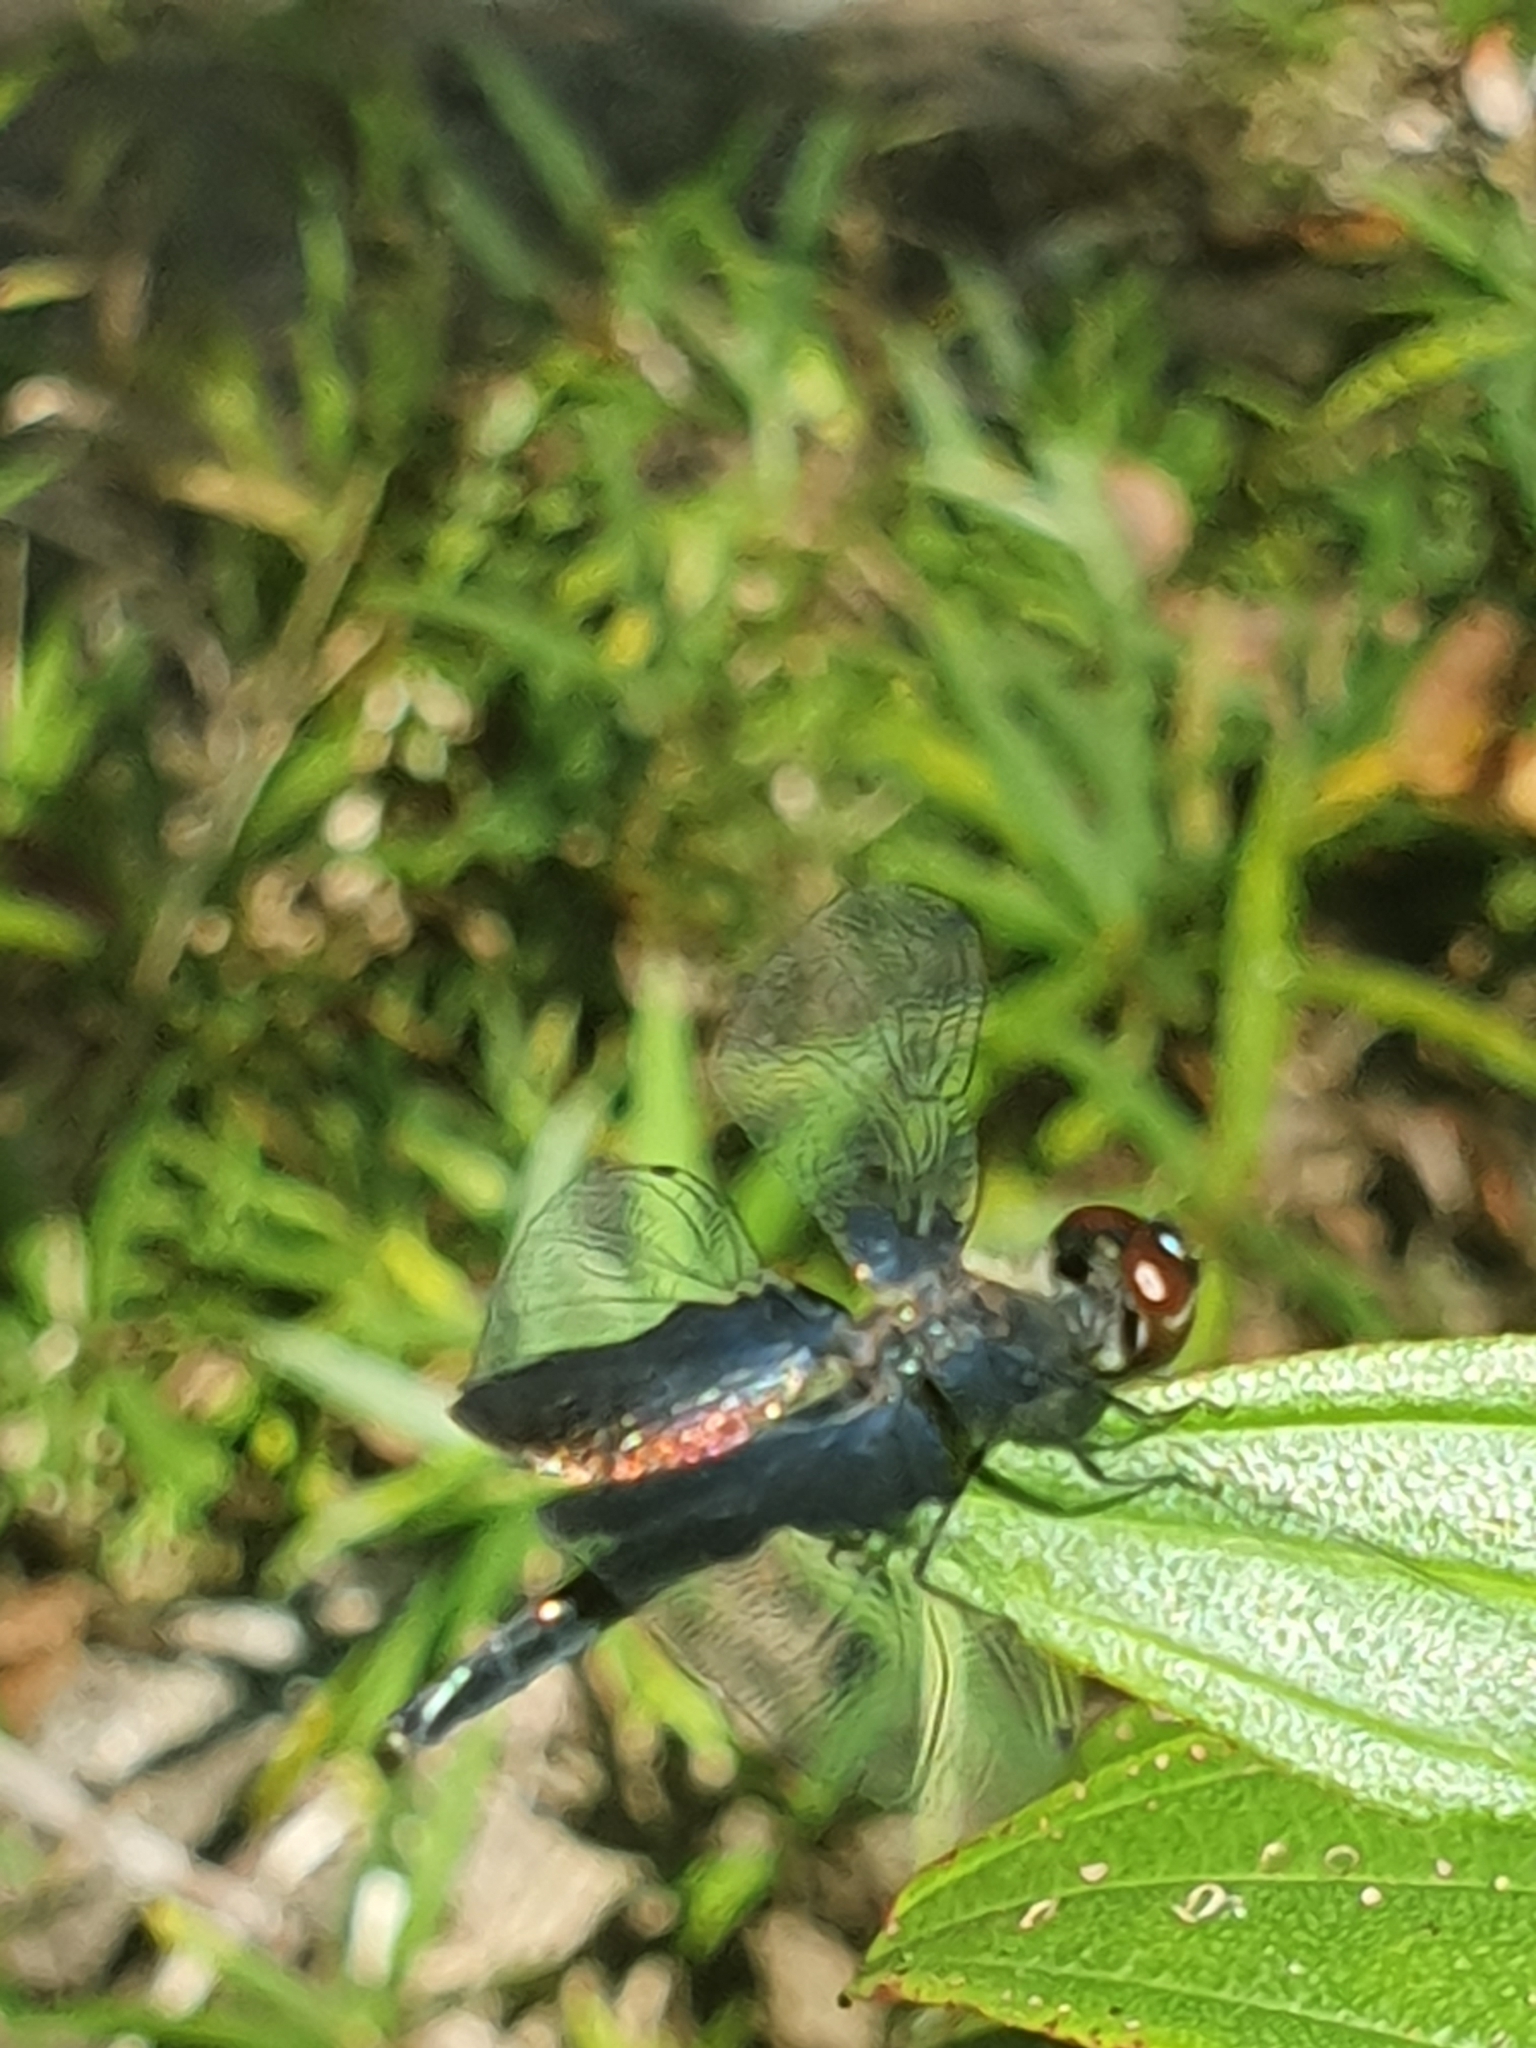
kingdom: Animalia
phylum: Arthropoda
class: Insecta
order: Odonata
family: Libellulidae
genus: Rhyothemis
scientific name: Rhyothemis triangularis
